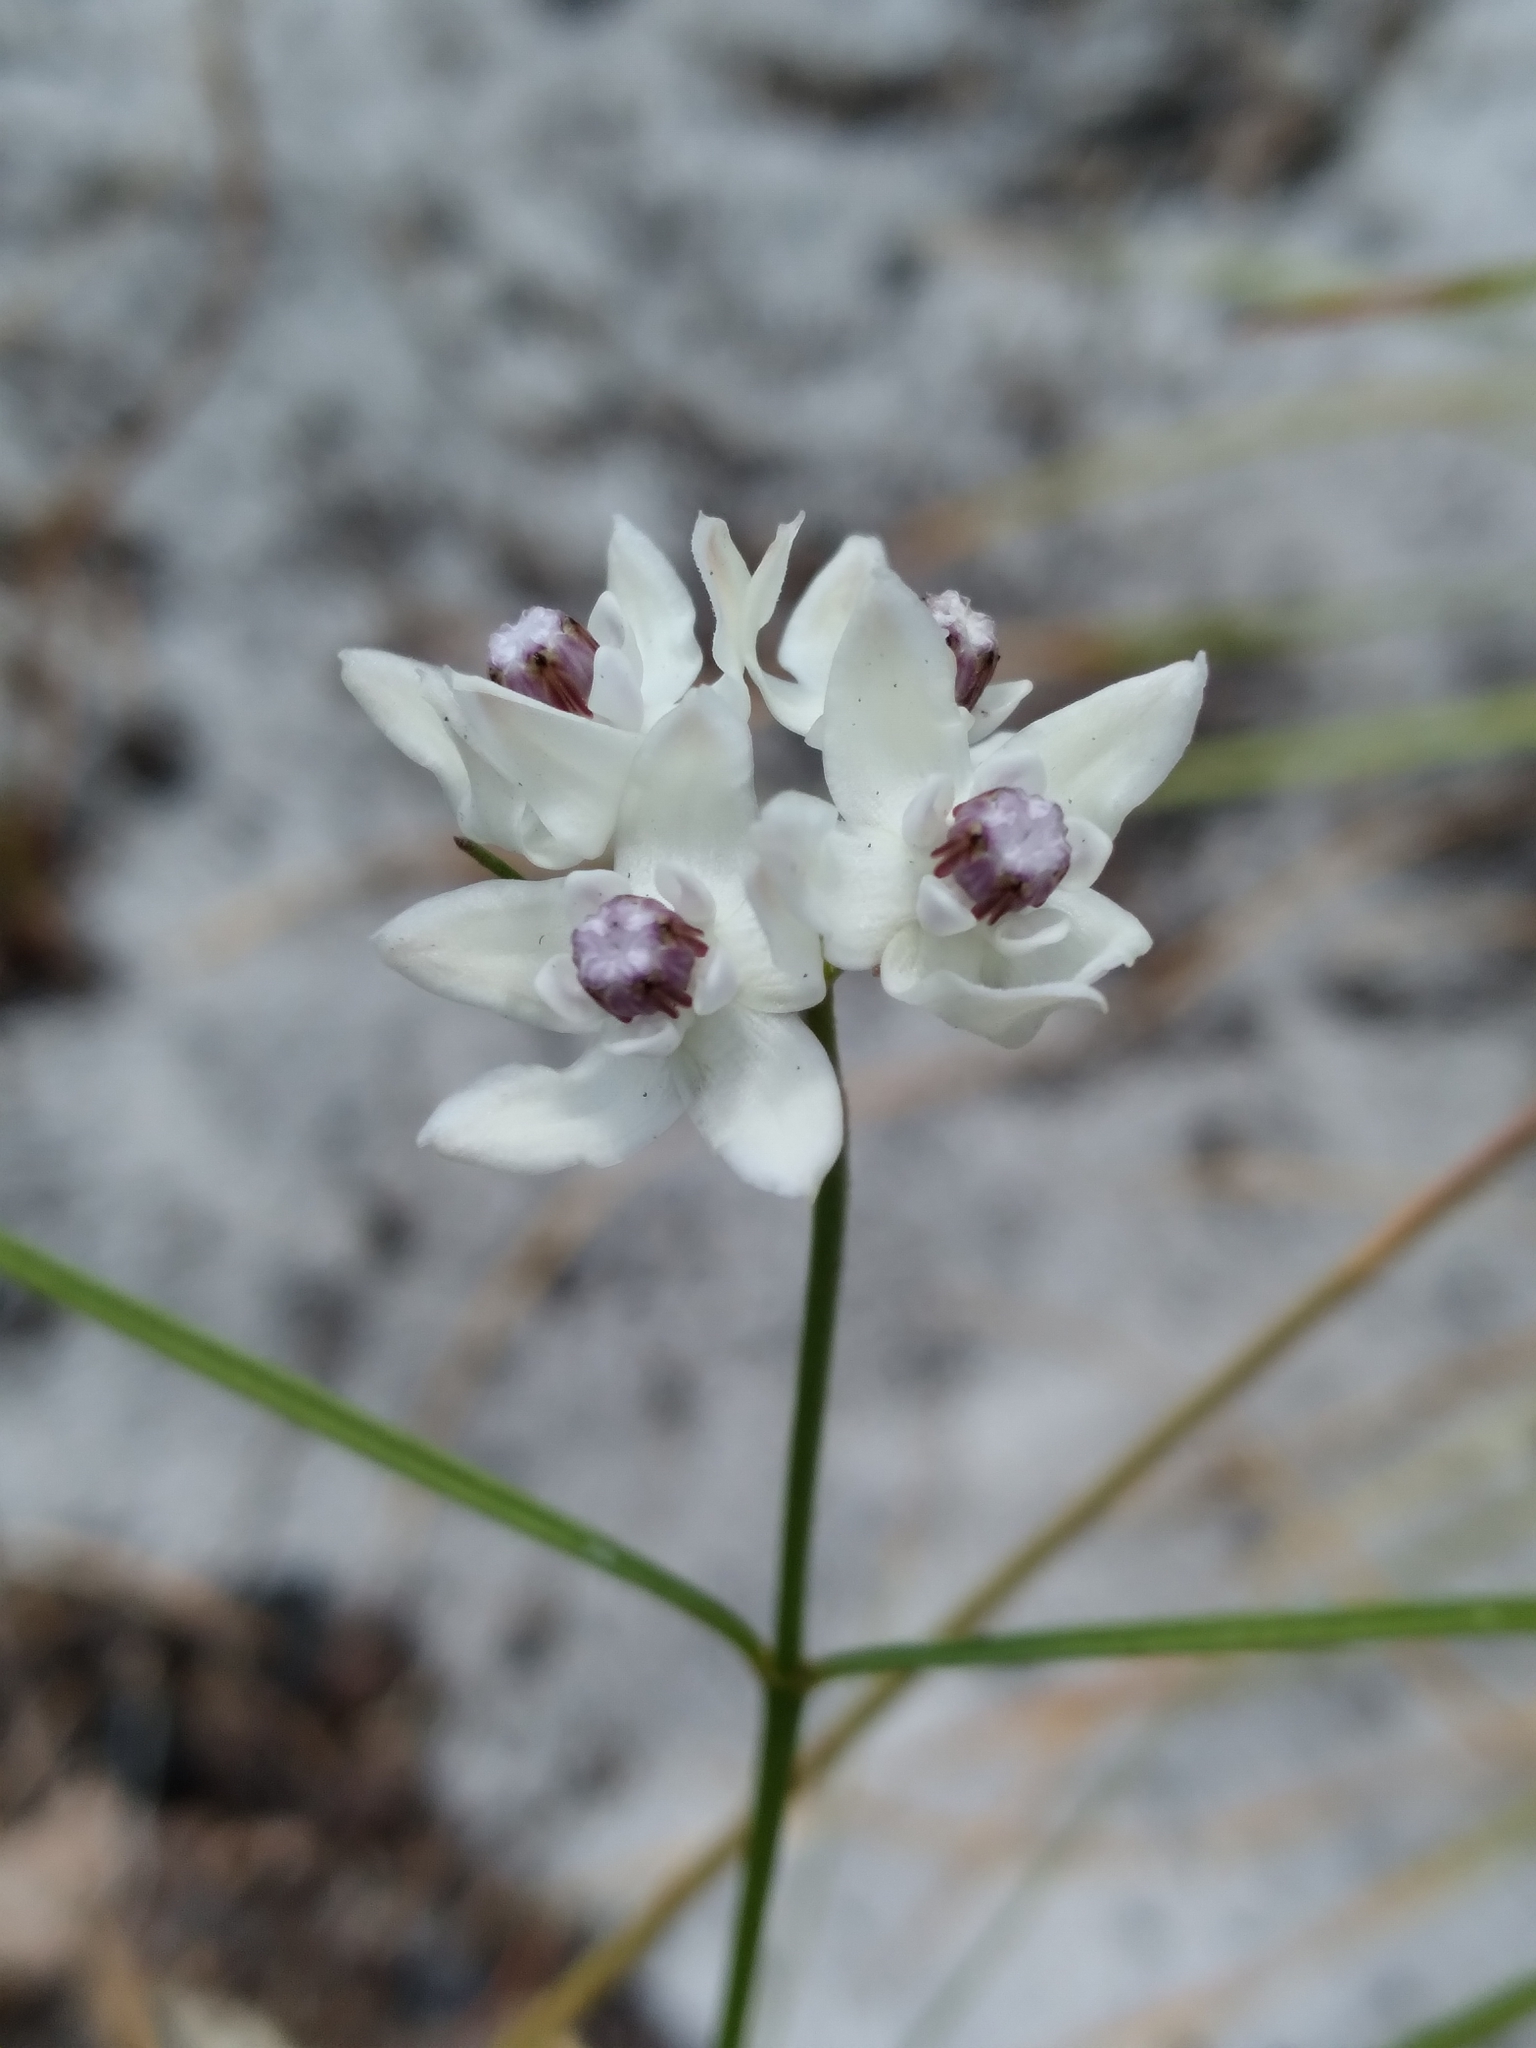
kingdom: Plantae
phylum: Tracheophyta
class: Magnoliopsida
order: Gentianales
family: Apocynaceae
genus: Asclepias
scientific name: Asclepias feayi
